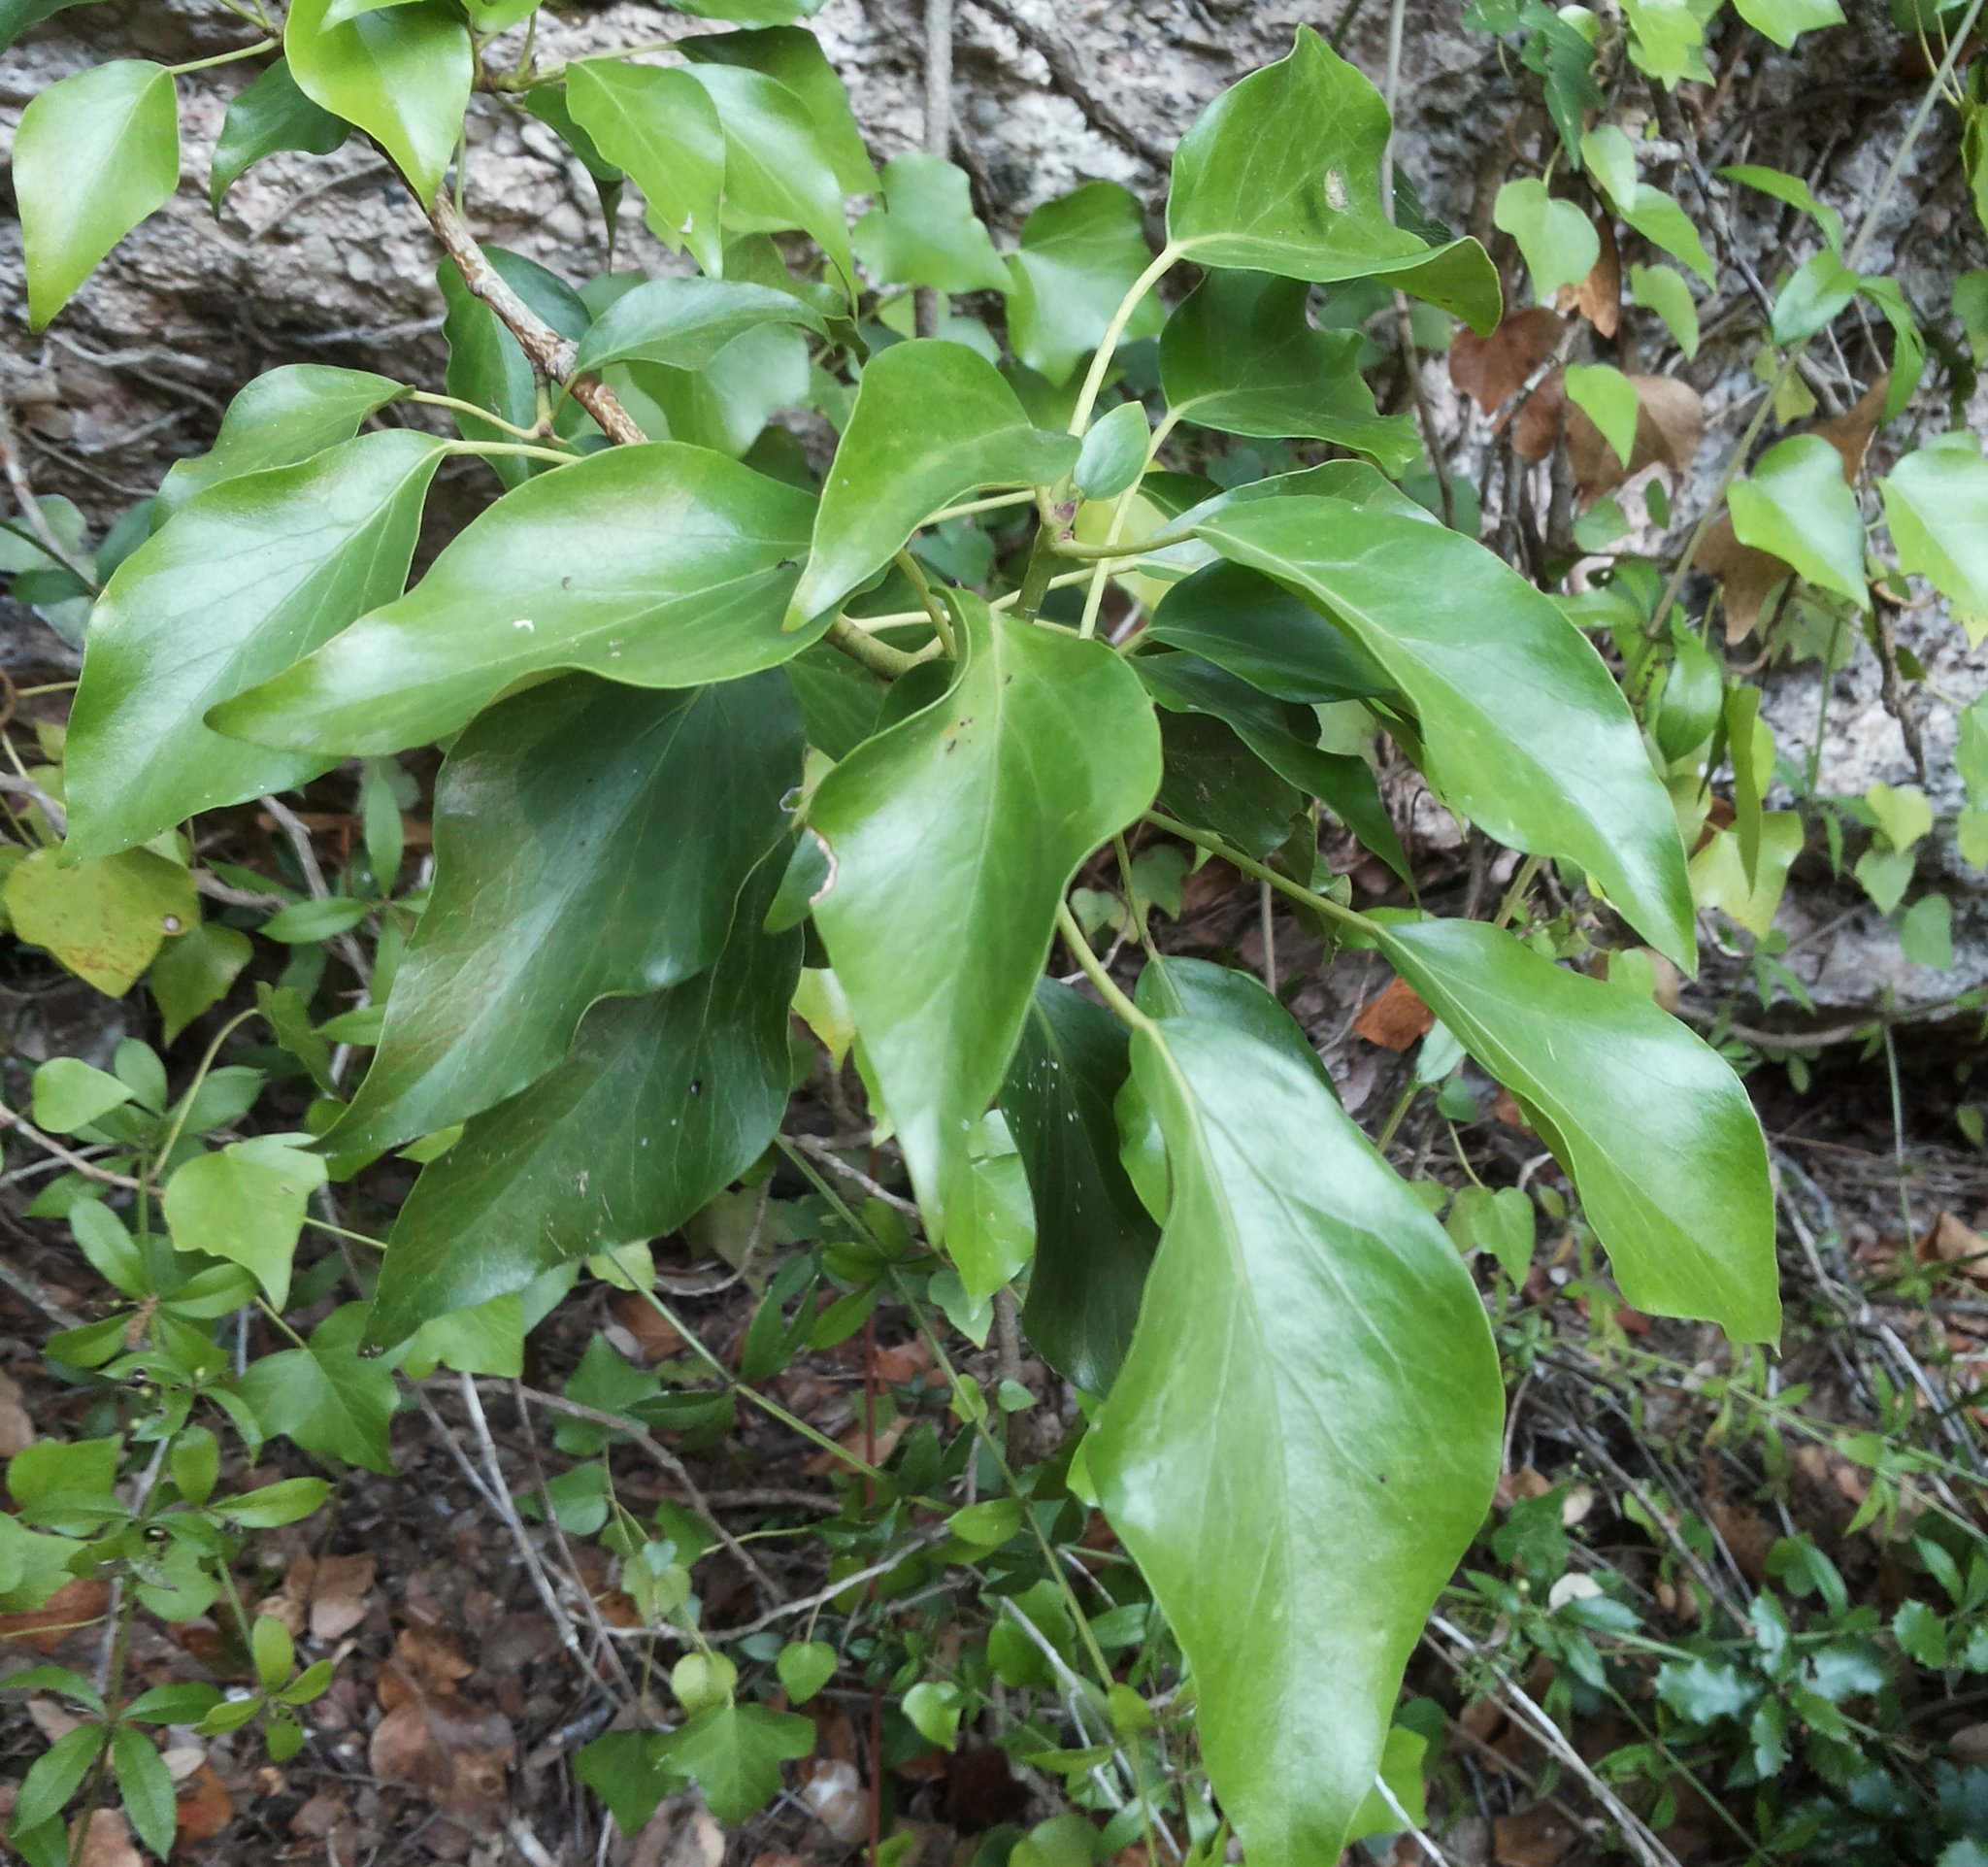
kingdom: Plantae
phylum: Tracheophyta
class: Magnoliopsida
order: Apiales
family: Araliaceae
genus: Hedera
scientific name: Hedera helix
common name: Ivy
